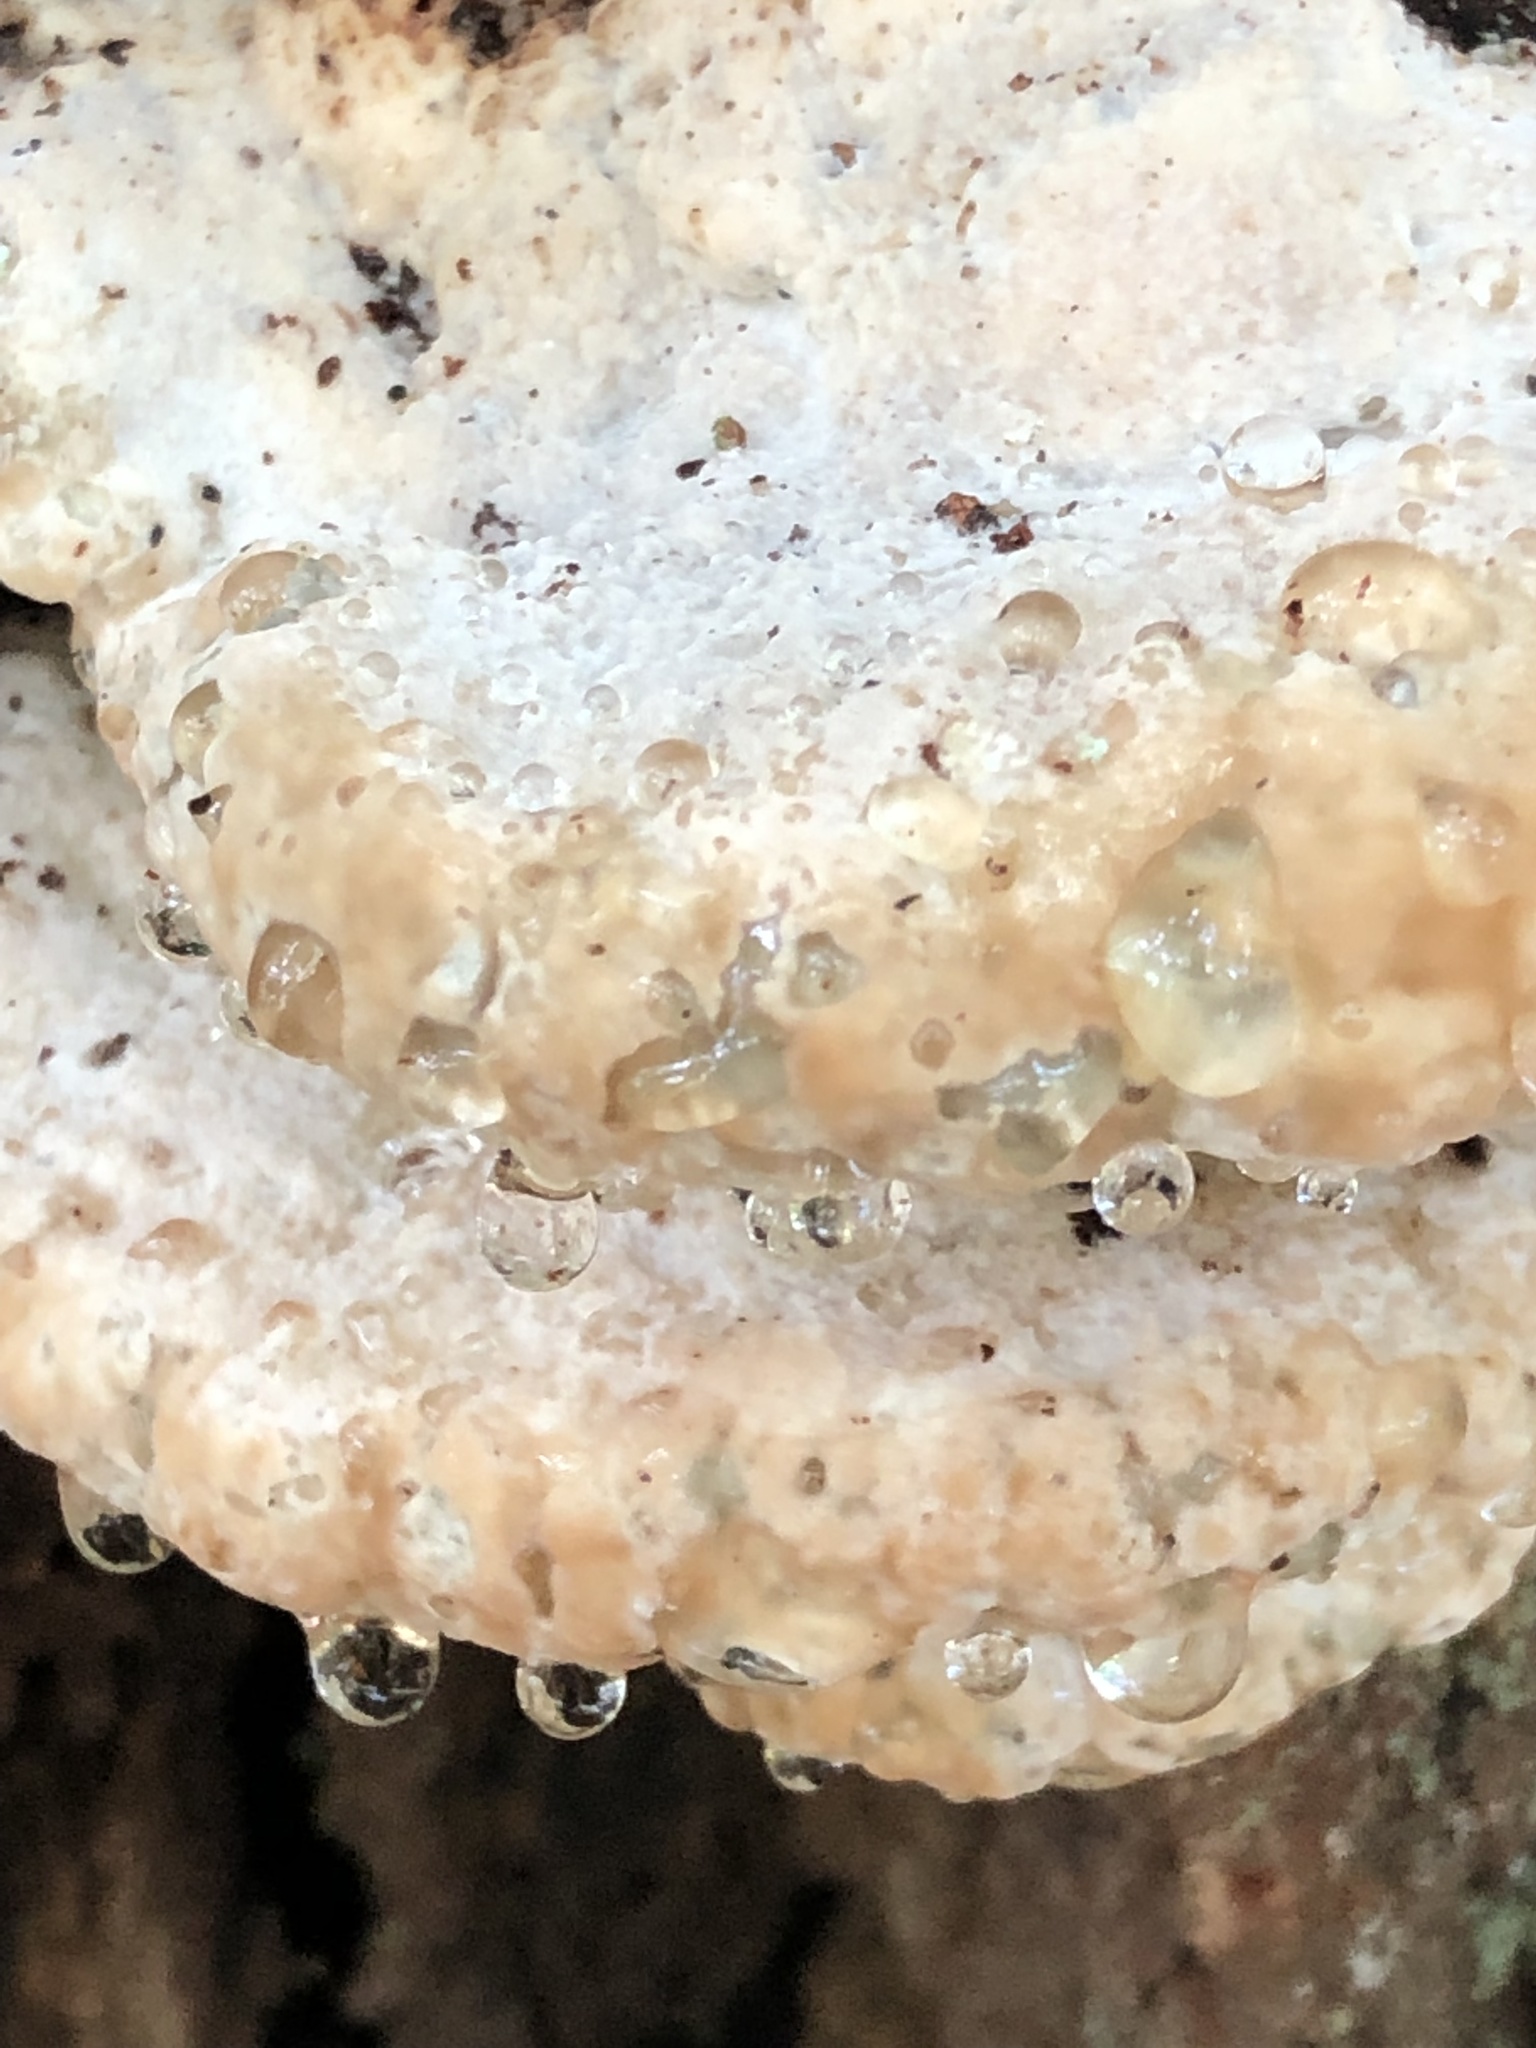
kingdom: Fungi
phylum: Basidiomycota
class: Agaricomycetes
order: Polyporales
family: Fomitopsidaceae
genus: Niveoporofomes
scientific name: Niveoporofomes spraguei
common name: Green cheese polypore
